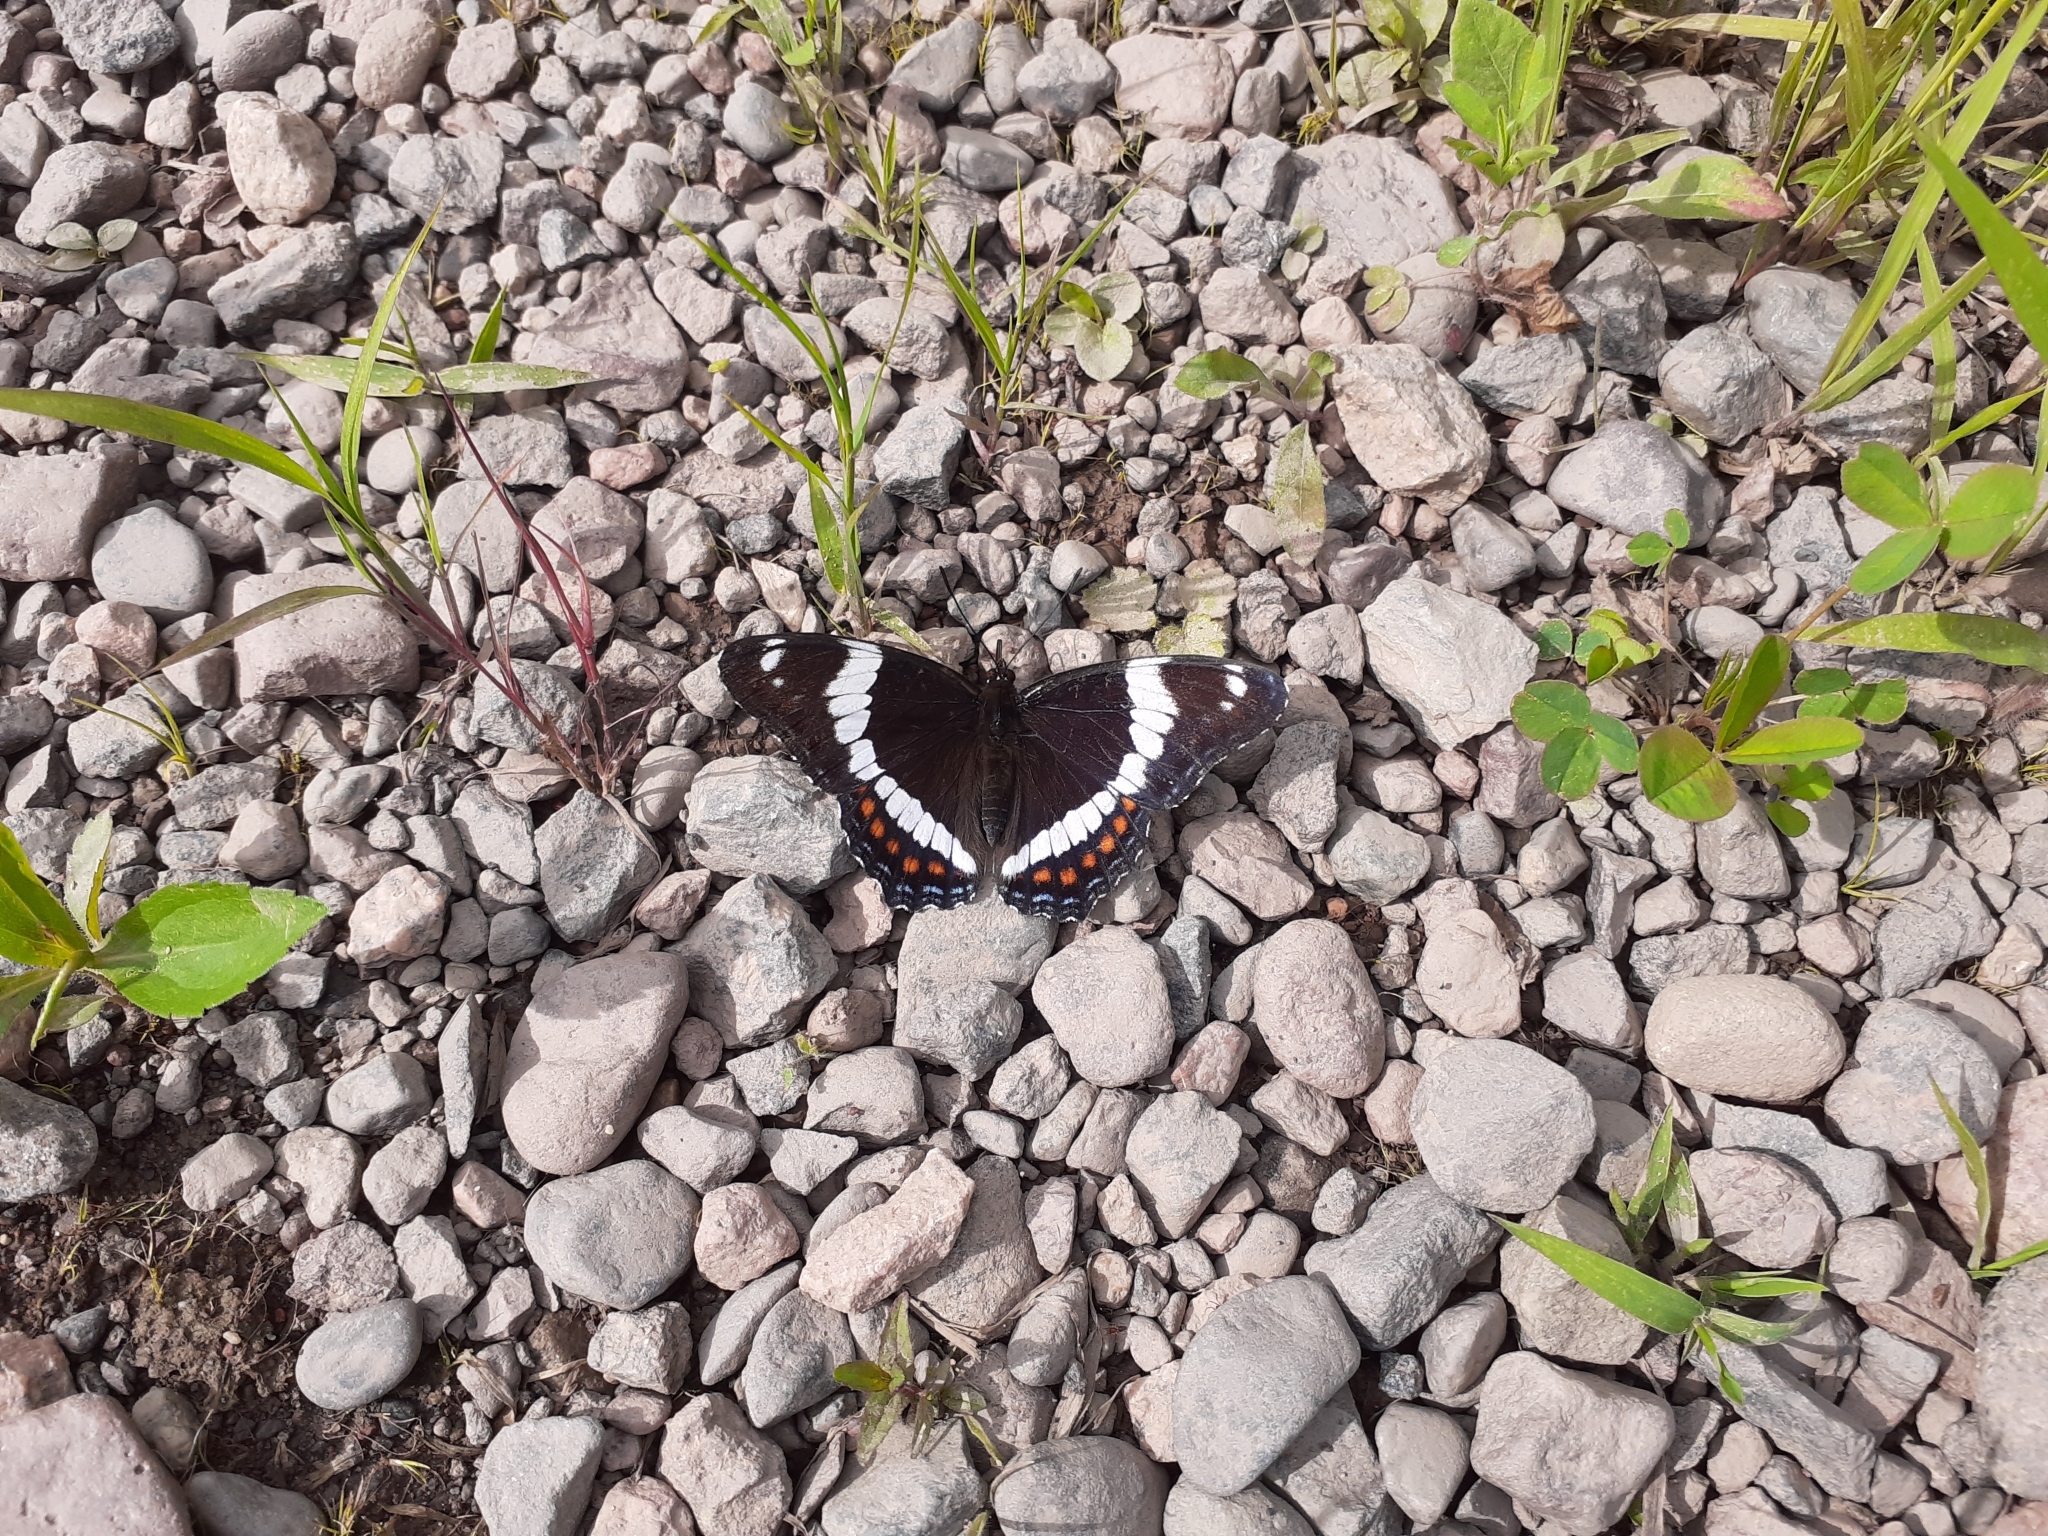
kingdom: Animalia
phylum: Arthropoda
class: Insecta
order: Lepidoptera
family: Nymphalidae
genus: Limenitis
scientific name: Limenitis arthemis
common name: Red-spotted admiral
